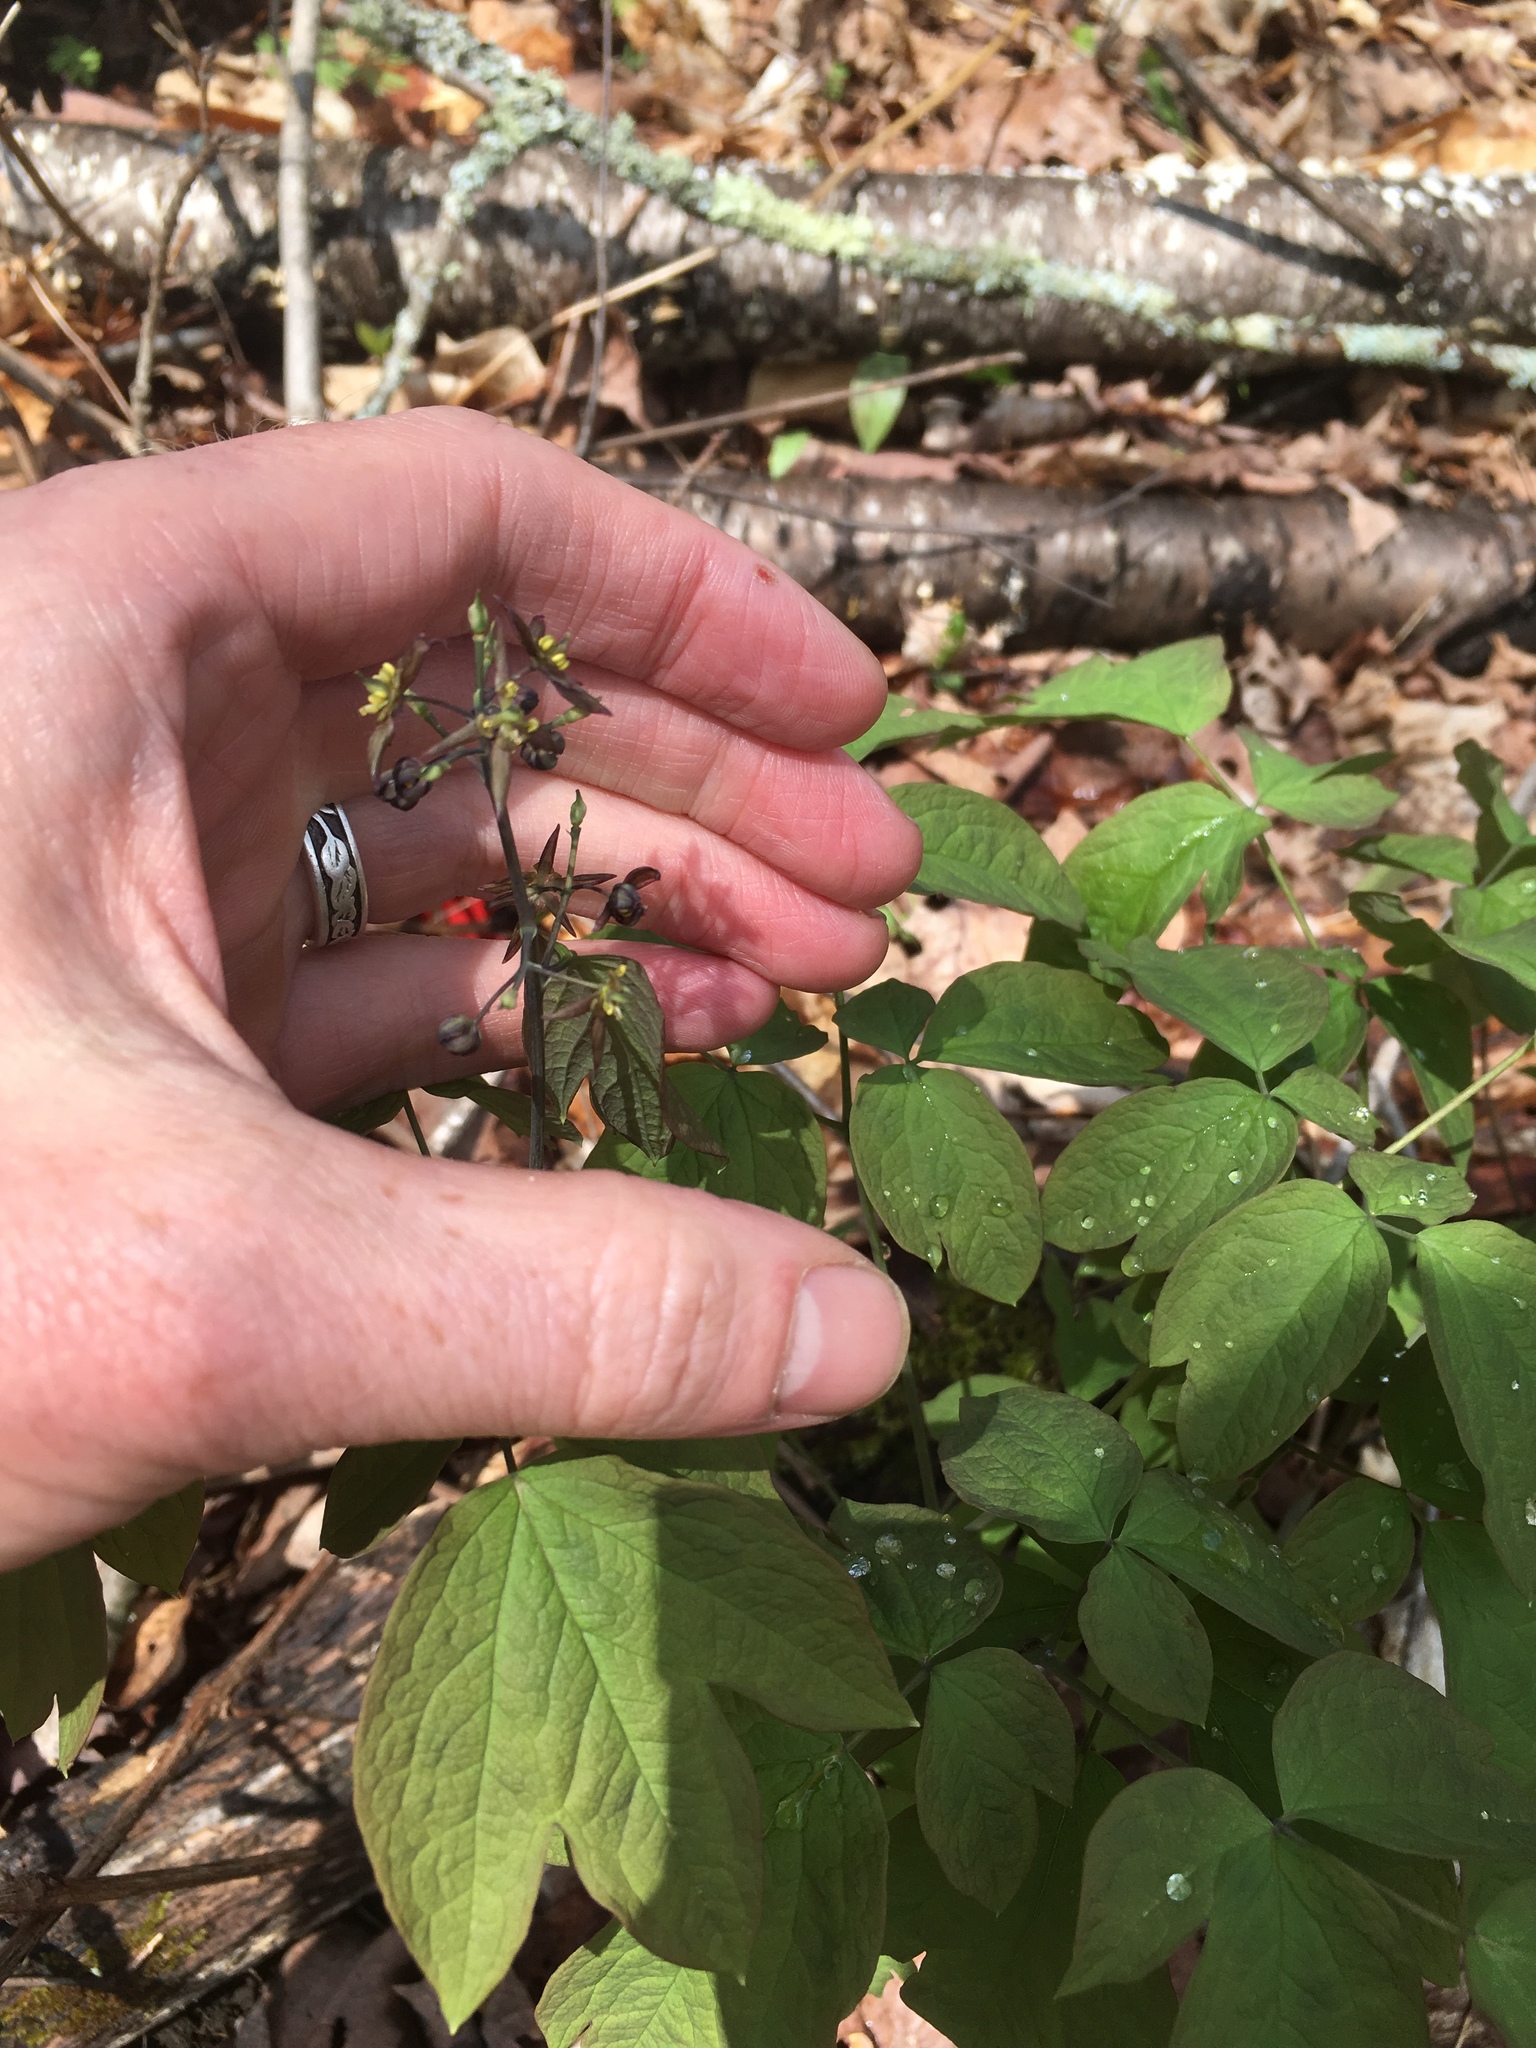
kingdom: Plantae
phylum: Tracheophyta
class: Magnoliopsida
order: Ranunculales
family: Berberidaceae
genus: Caulophyllum
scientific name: Caulophyllum giganteum
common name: Blue cohosh
